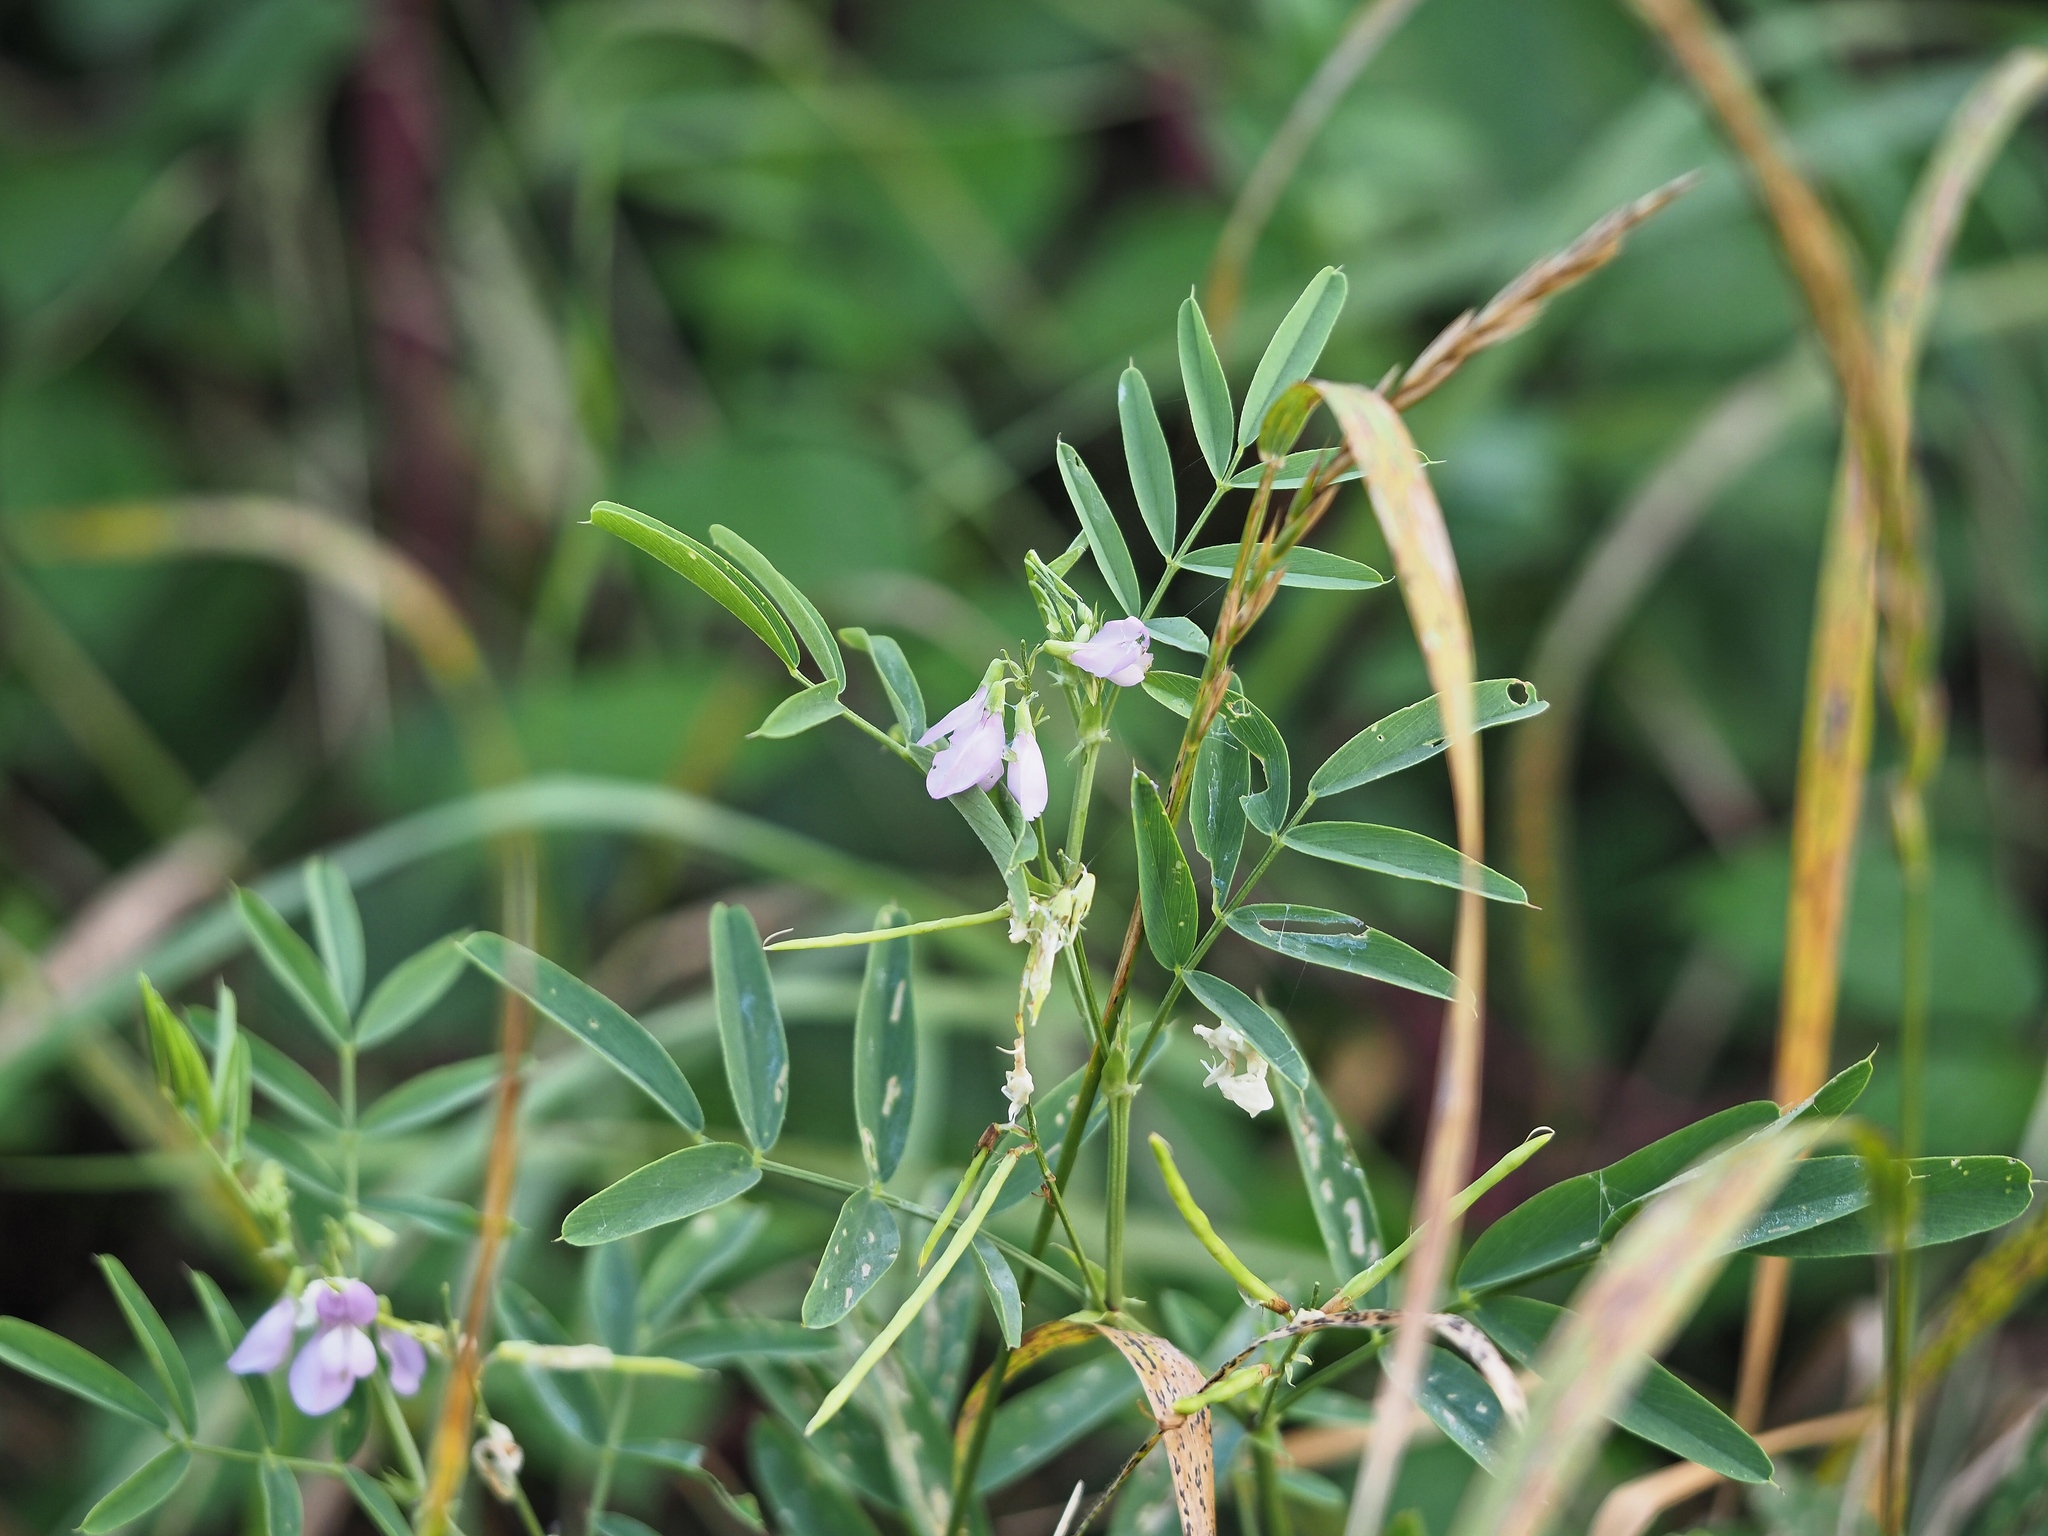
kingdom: Plantae
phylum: Tracheophyta
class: Magnoliopsida
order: Fabales
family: Fabaceae
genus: Galega
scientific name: Galega officinalis
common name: Goat's-rue
